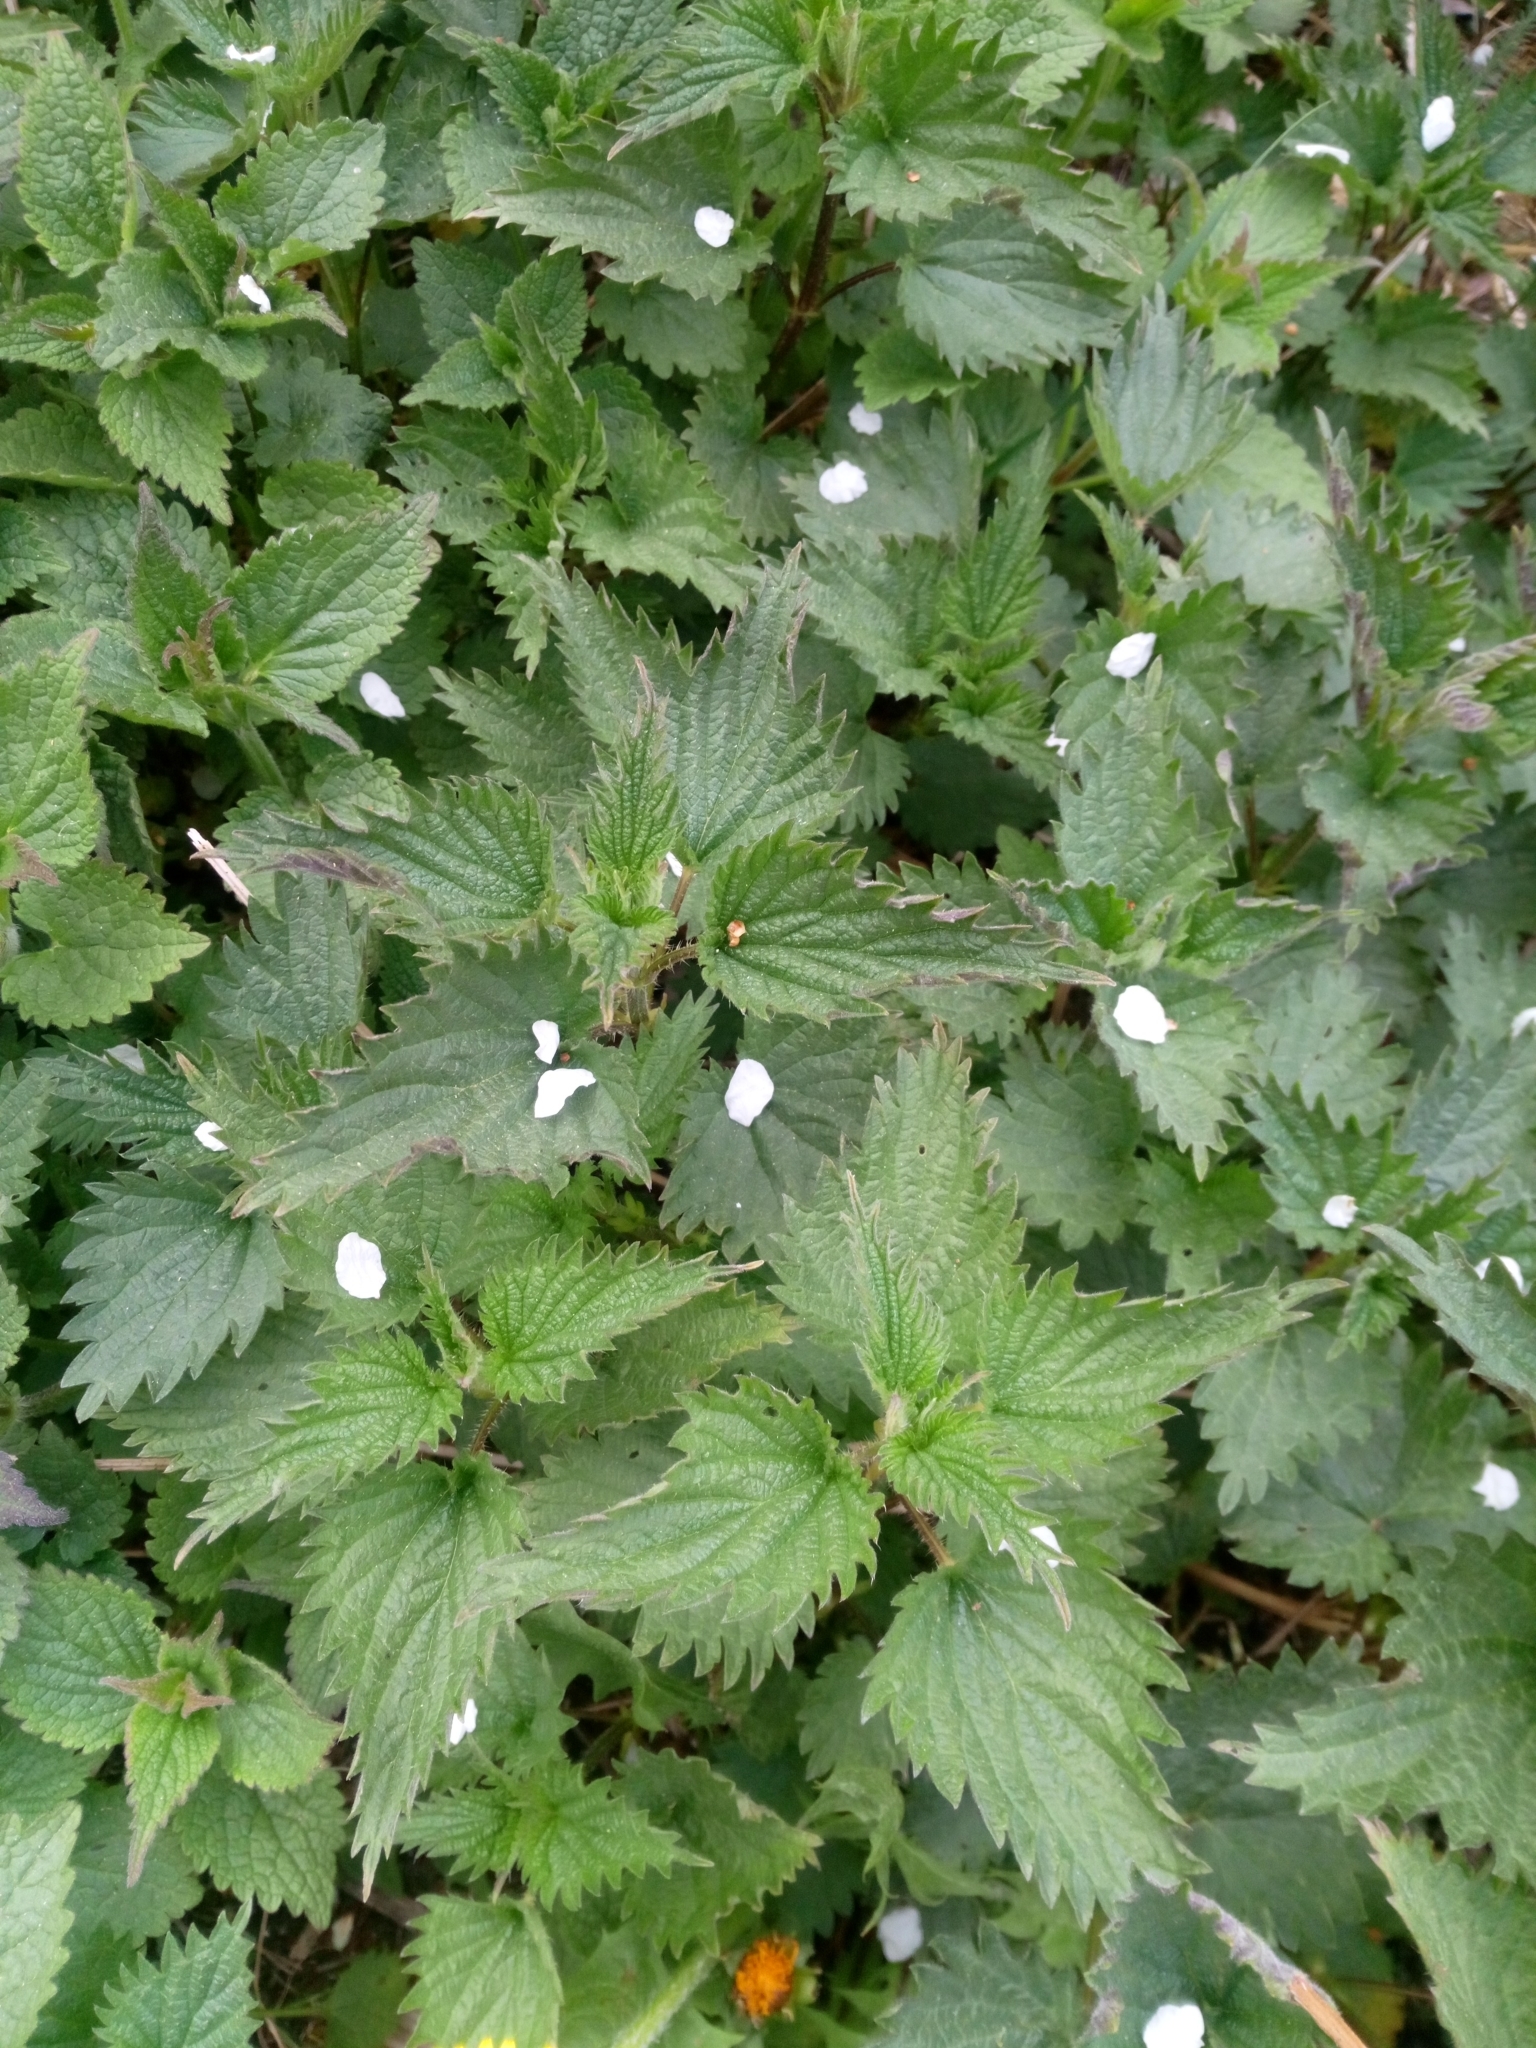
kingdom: Plantae
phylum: Tracheophyta
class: Magnoliopsida
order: Rosales
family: Urticaceae
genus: Urtica
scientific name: Urtica dioica
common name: Common nettle
